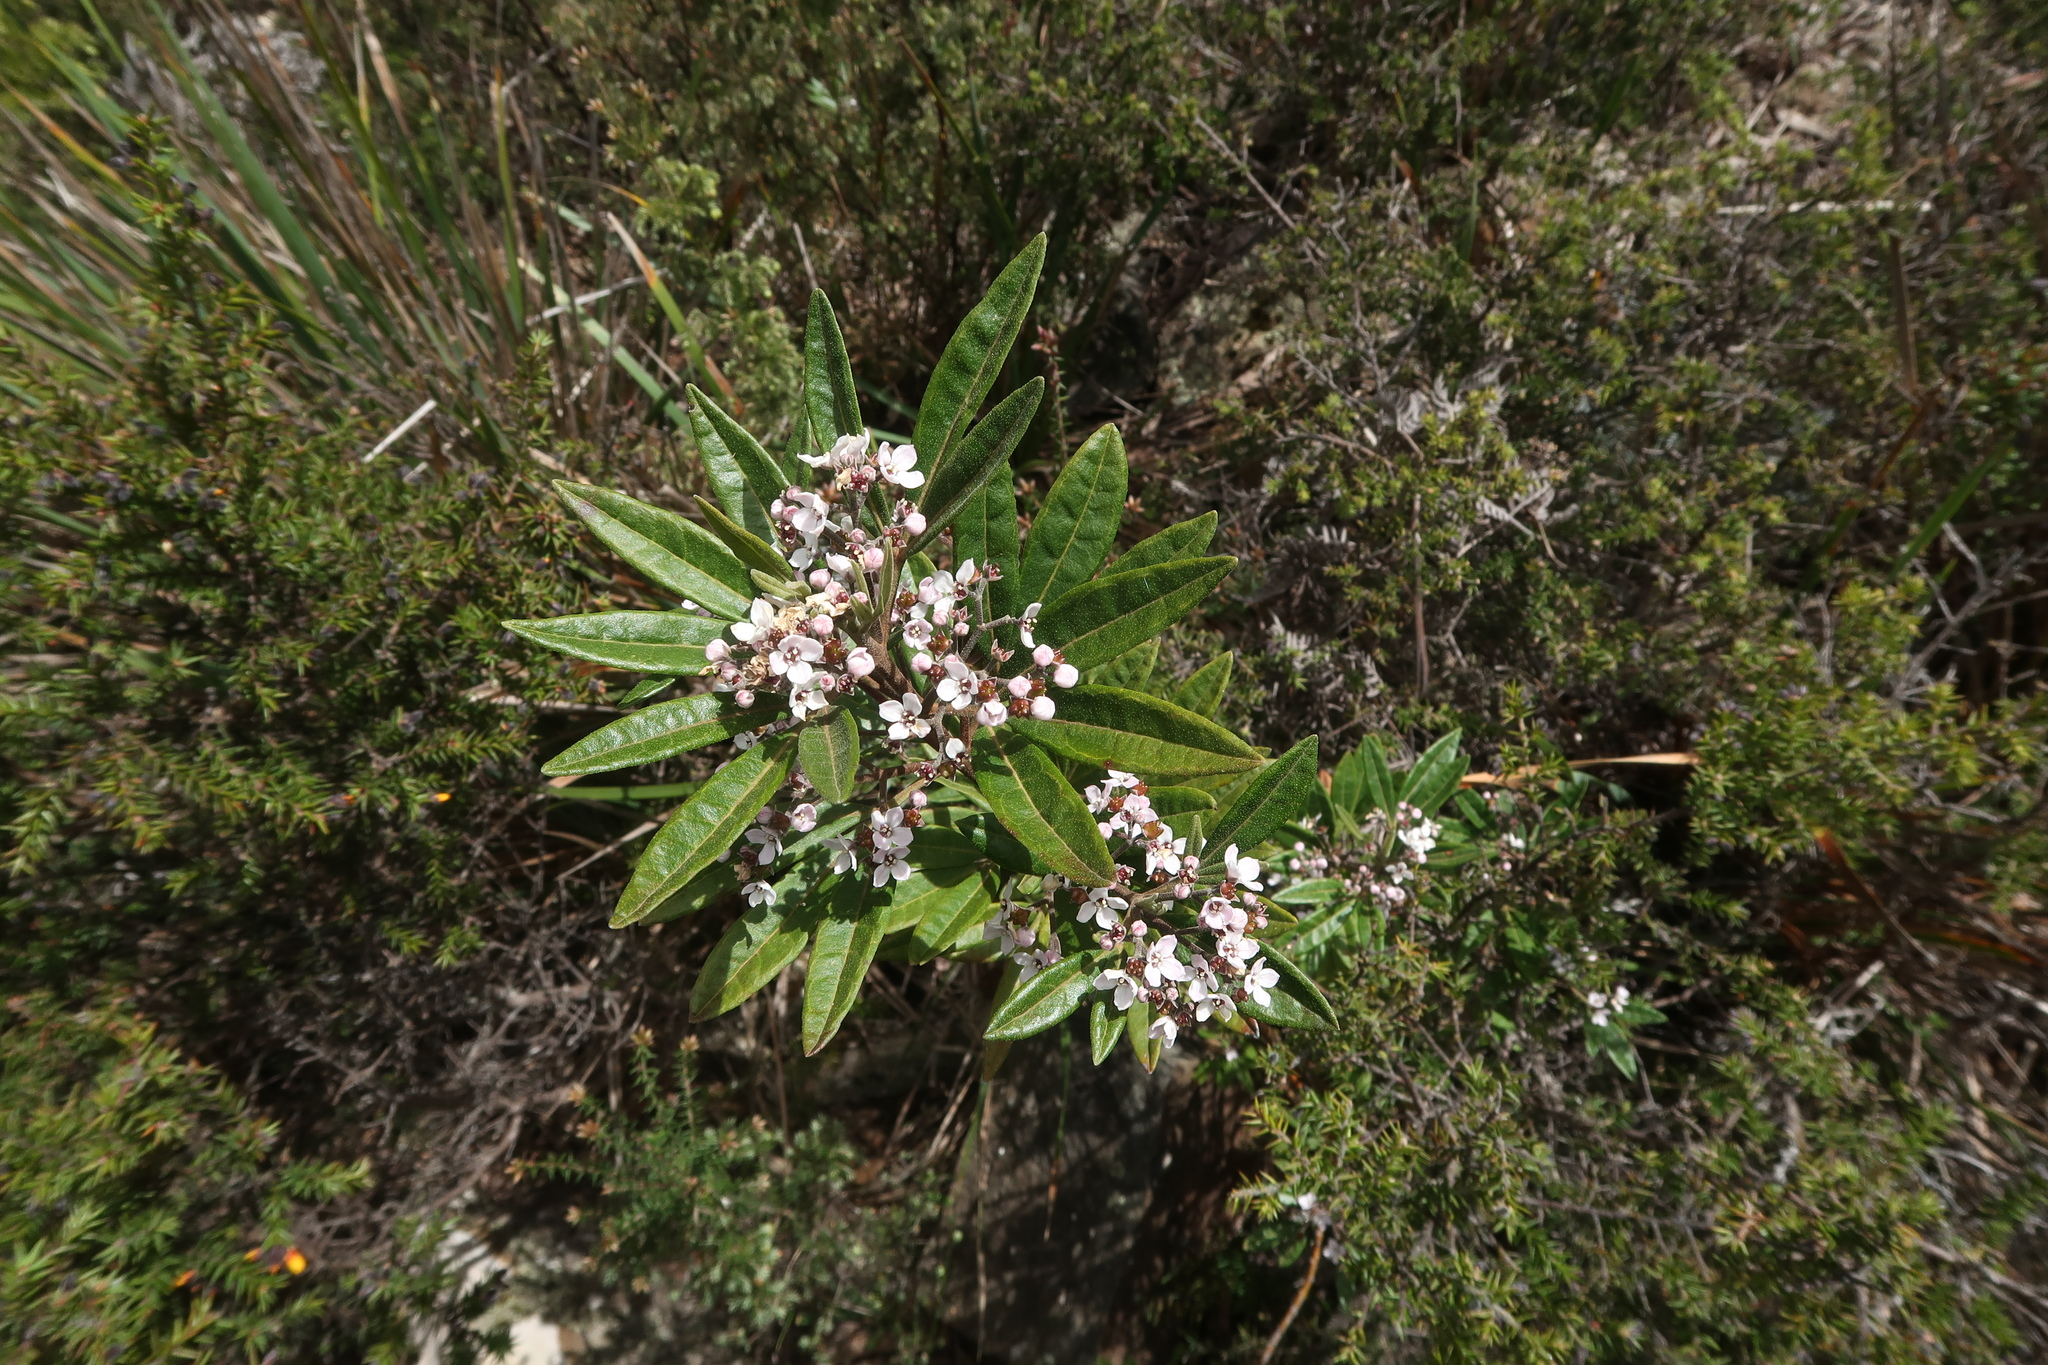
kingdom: Plantae
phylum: Tracheophyta
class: Magnoliopsida
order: Sapindales
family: Rutaceae
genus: Zieria
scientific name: Zieria arborescens
